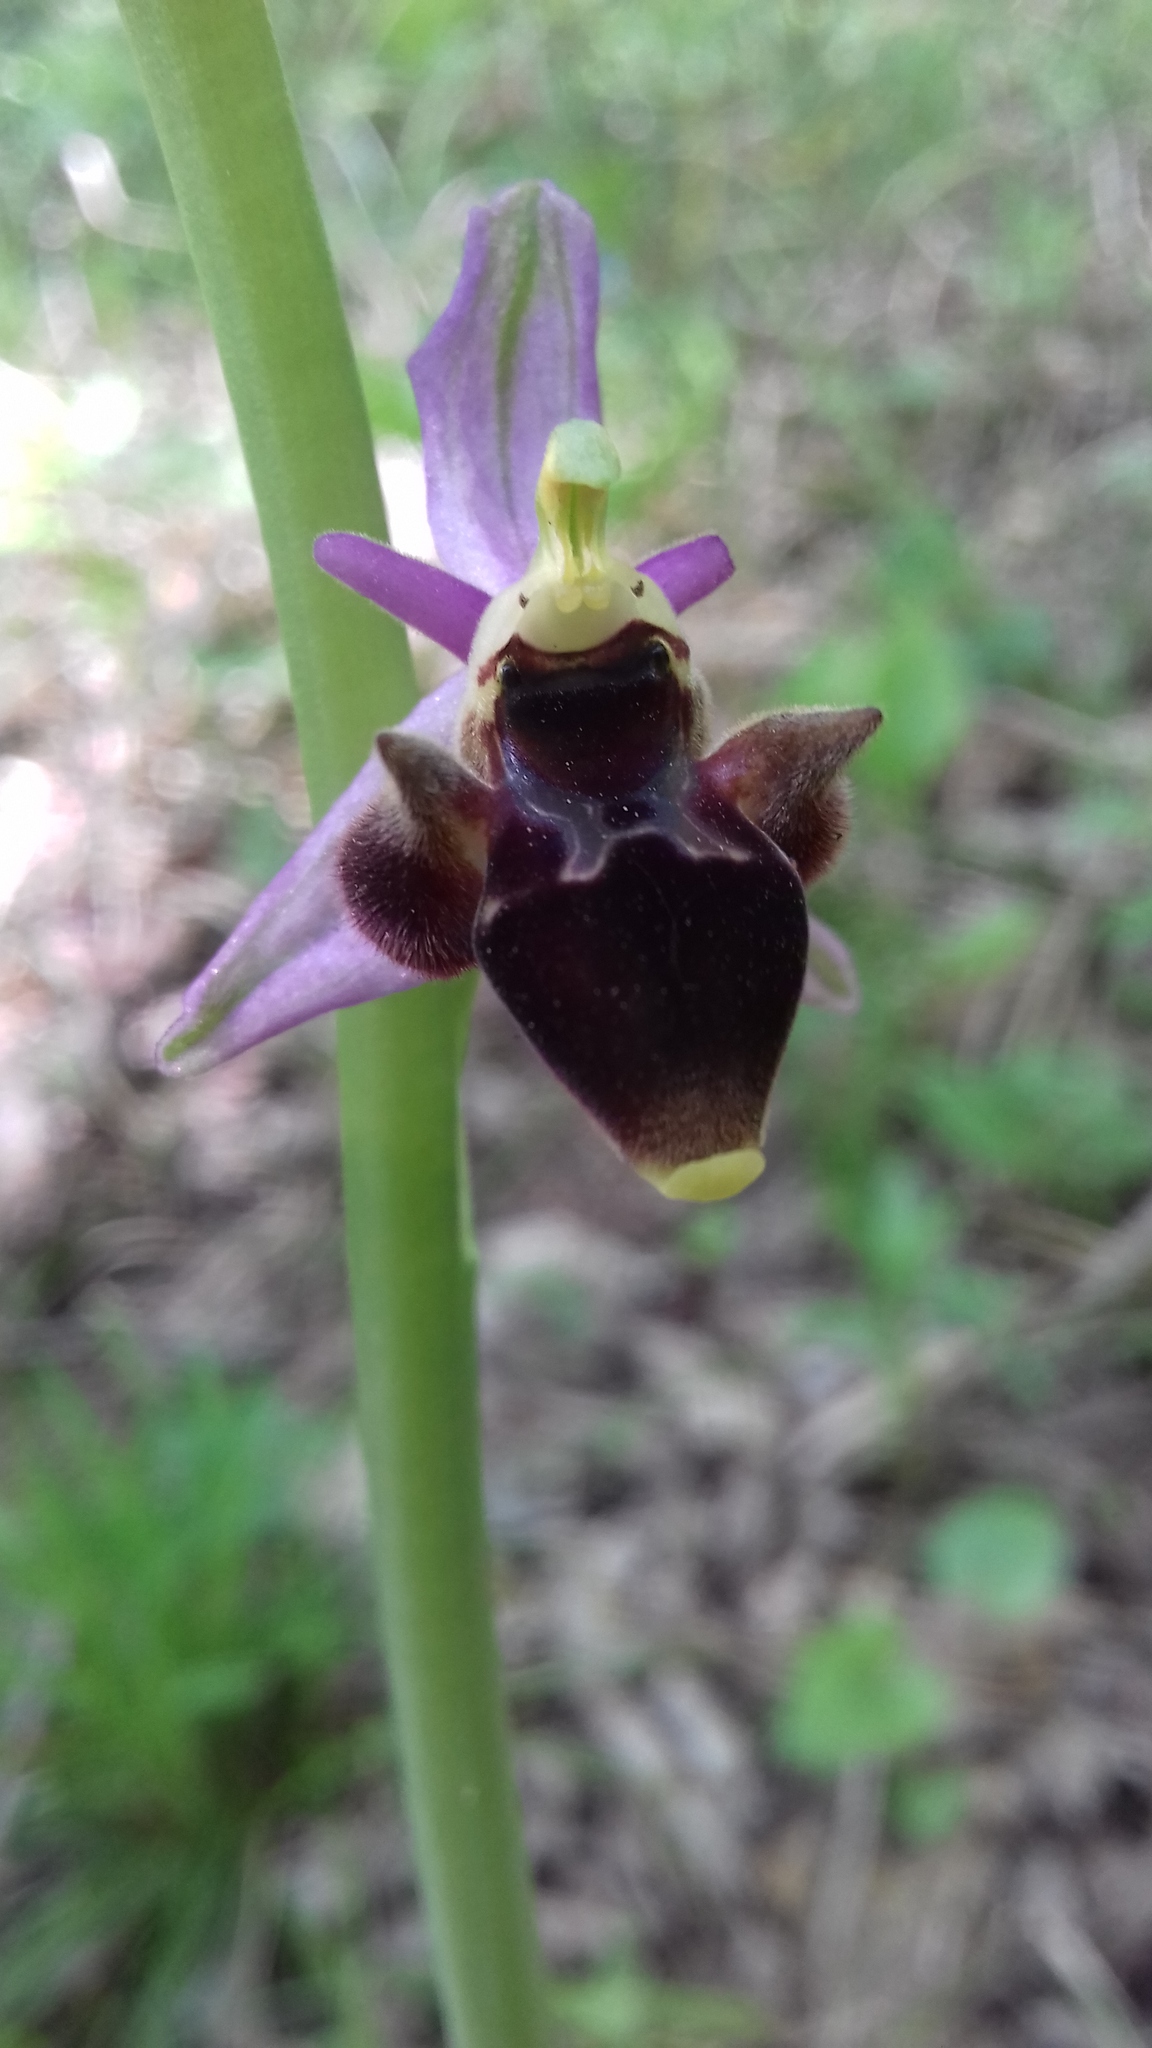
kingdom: Plantae
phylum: Tracheophyta
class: Liliopsida
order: Asparagales
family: Orchidaceae
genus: Ophrys
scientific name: Ophrys
